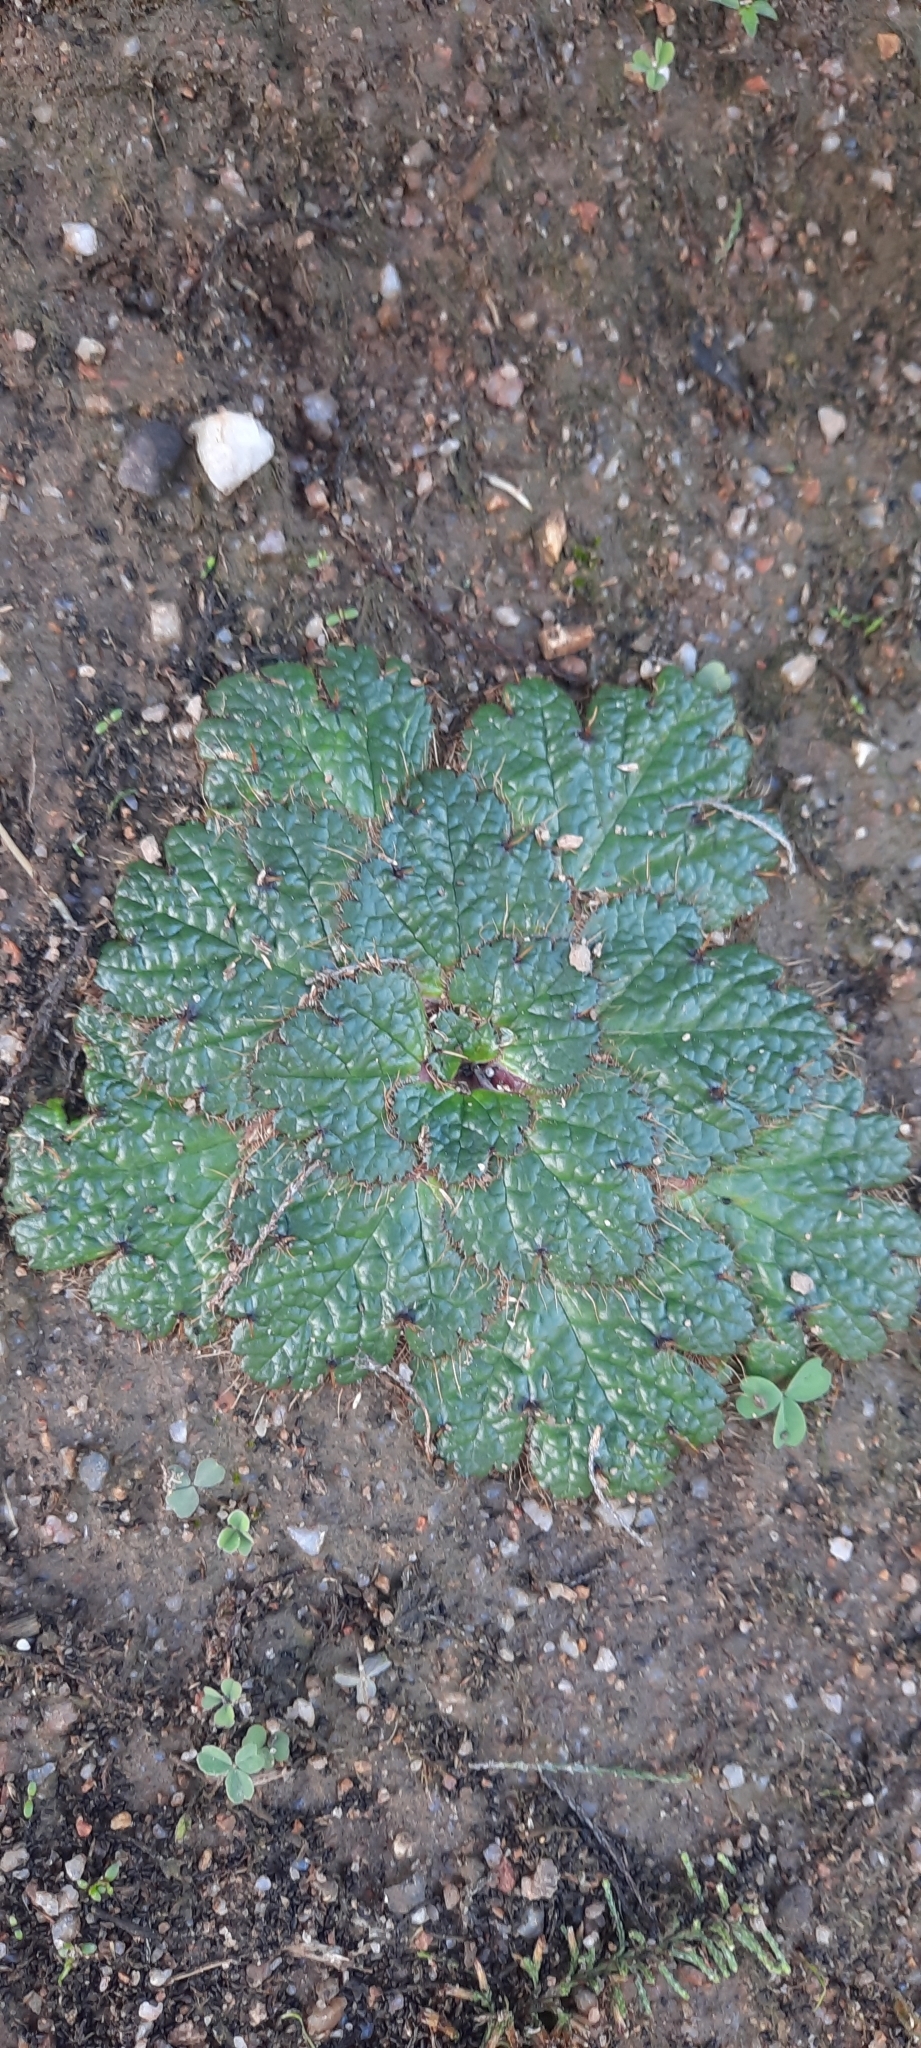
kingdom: Plantae
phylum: Tracheophyta
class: Magnoliopsida
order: Apiales
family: Apiaceae
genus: Arctopus
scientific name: Arctopus echinatus
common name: Platdoring
